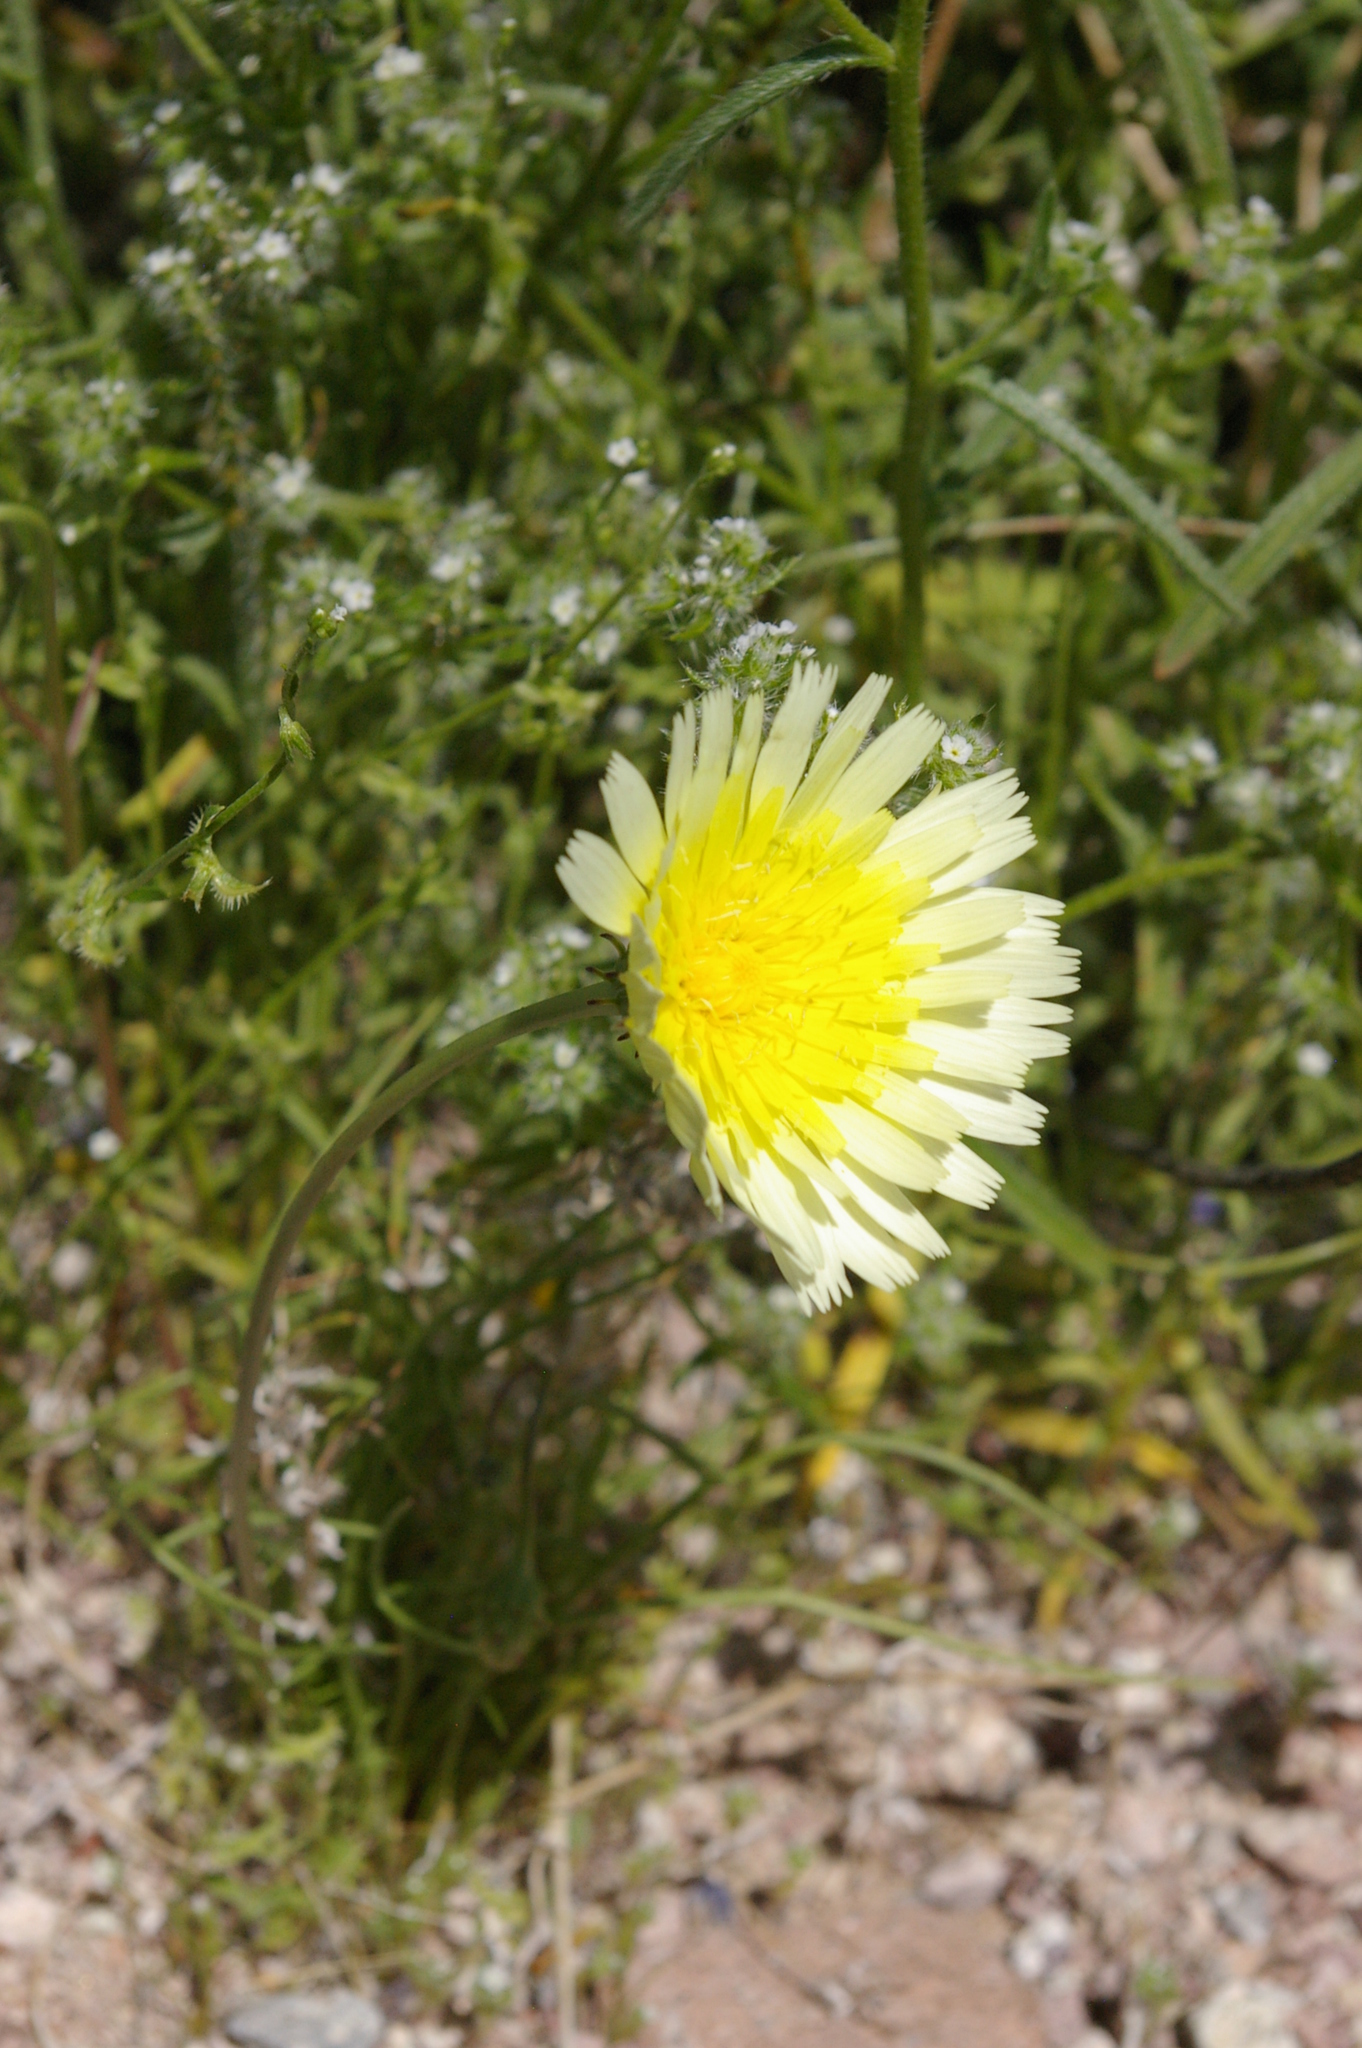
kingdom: Plantae
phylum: Tracheophyta
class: Magnoliopsida
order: Asterales
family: Asteraceae
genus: Malacothrix
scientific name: Malacothrix glabrata
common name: Smooth desert-dandelion
